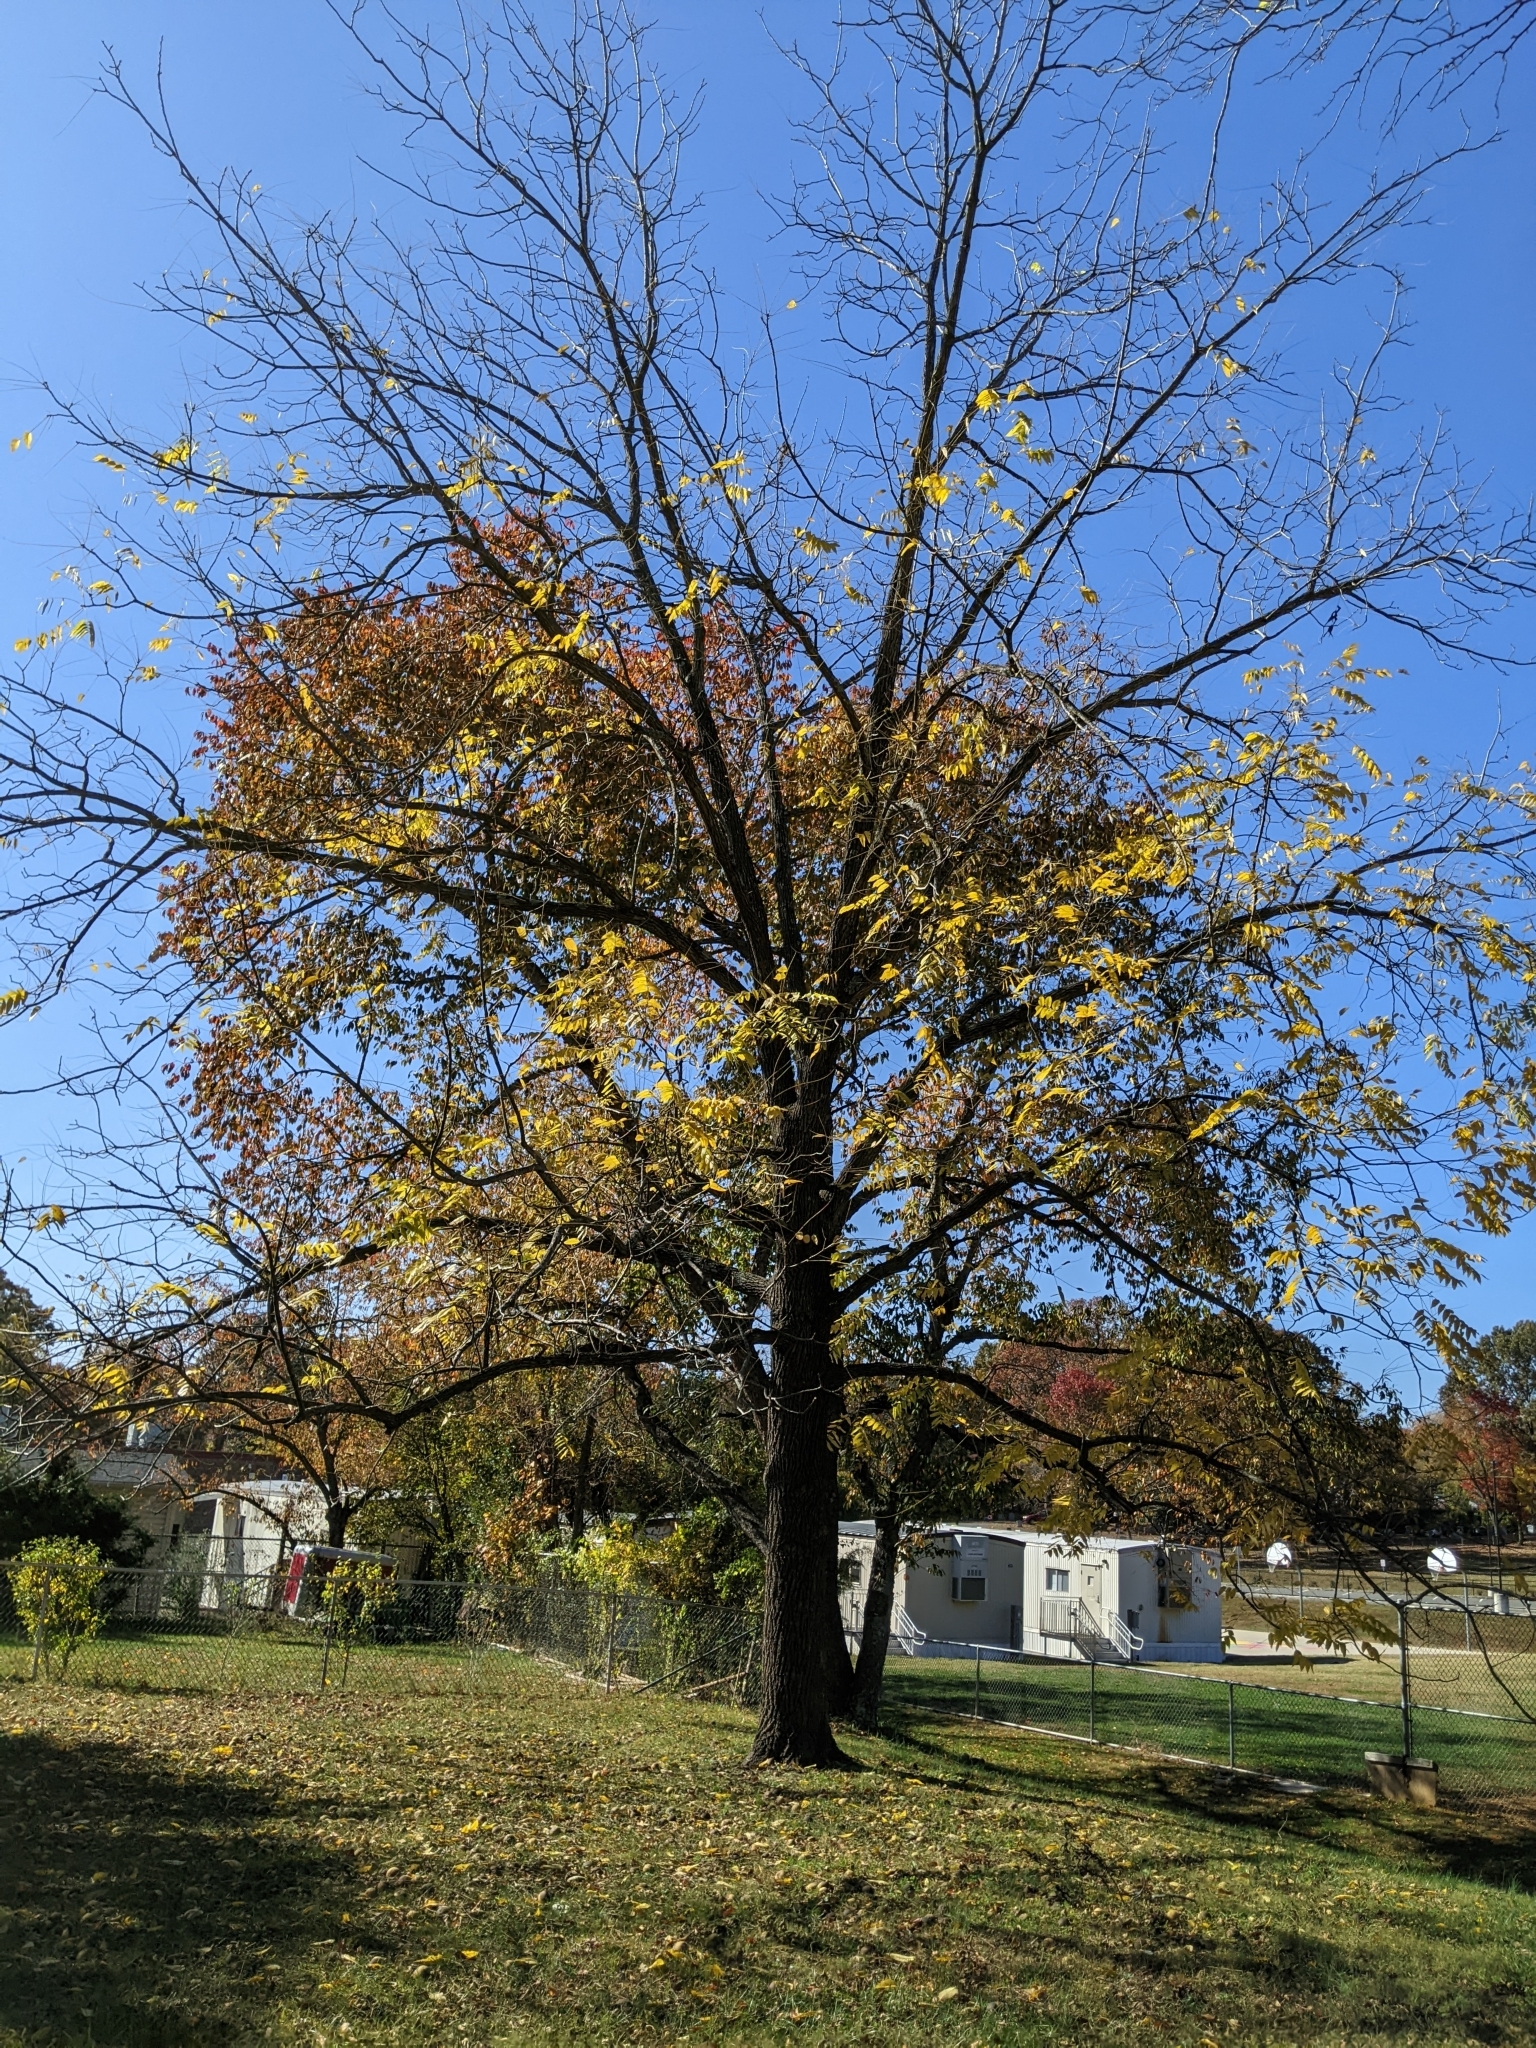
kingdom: Plantae
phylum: Tracheophyta
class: Magnoliopsida
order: Fagales
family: Juglandaceae
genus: Juglans
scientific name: Juglans nigra
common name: Black walnut
